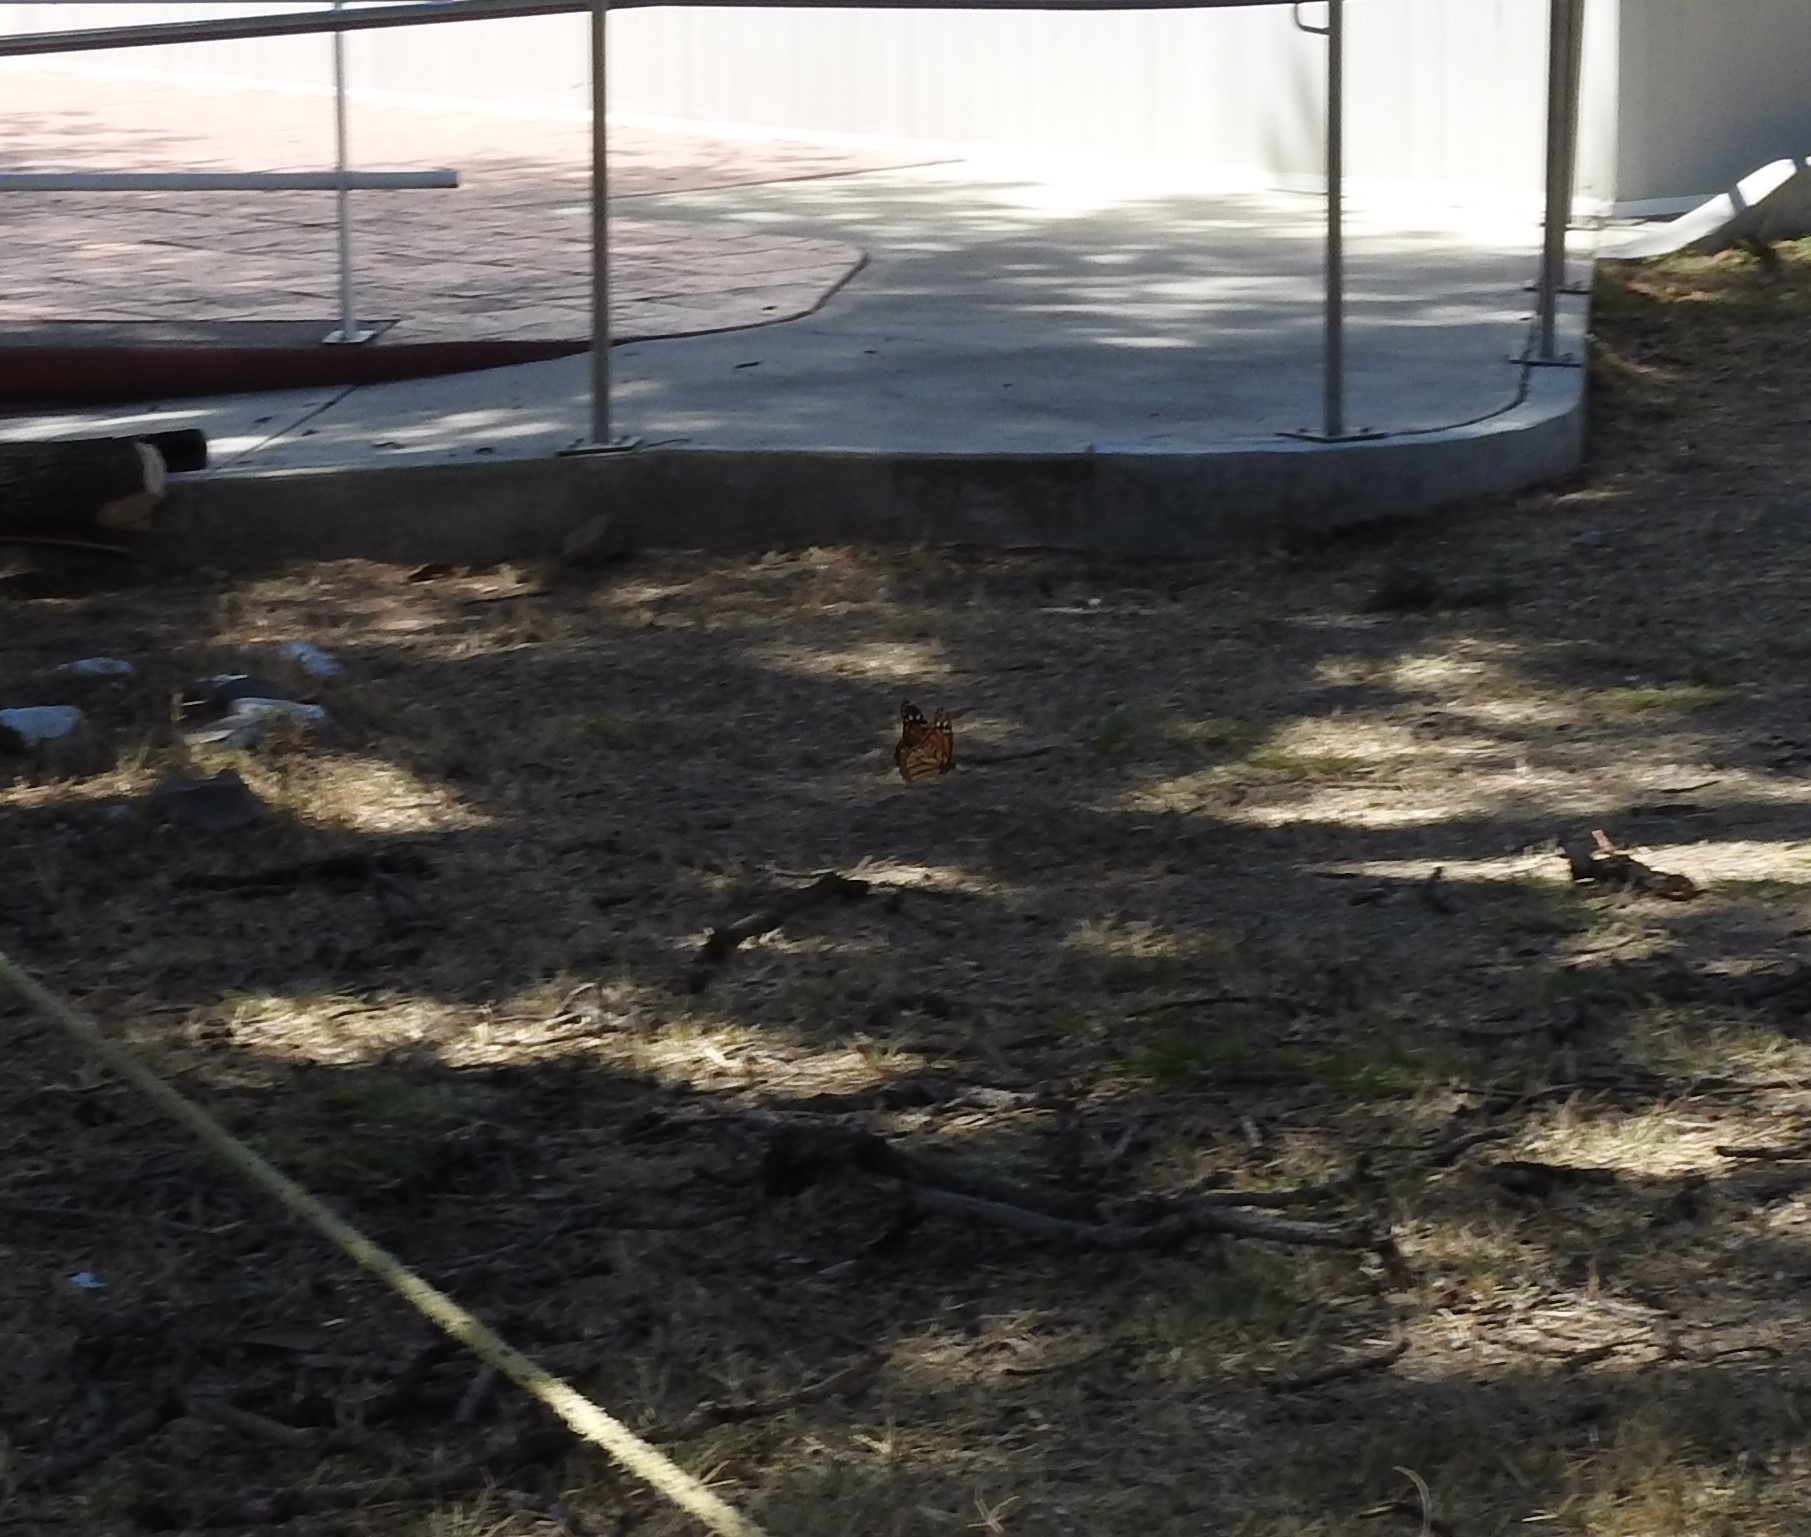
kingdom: Animalia
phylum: Arthropoda
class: Insecta
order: Lepidoptera
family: Nymphalidae
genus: Danaus
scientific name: Danaus plexippus
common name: Monarch
